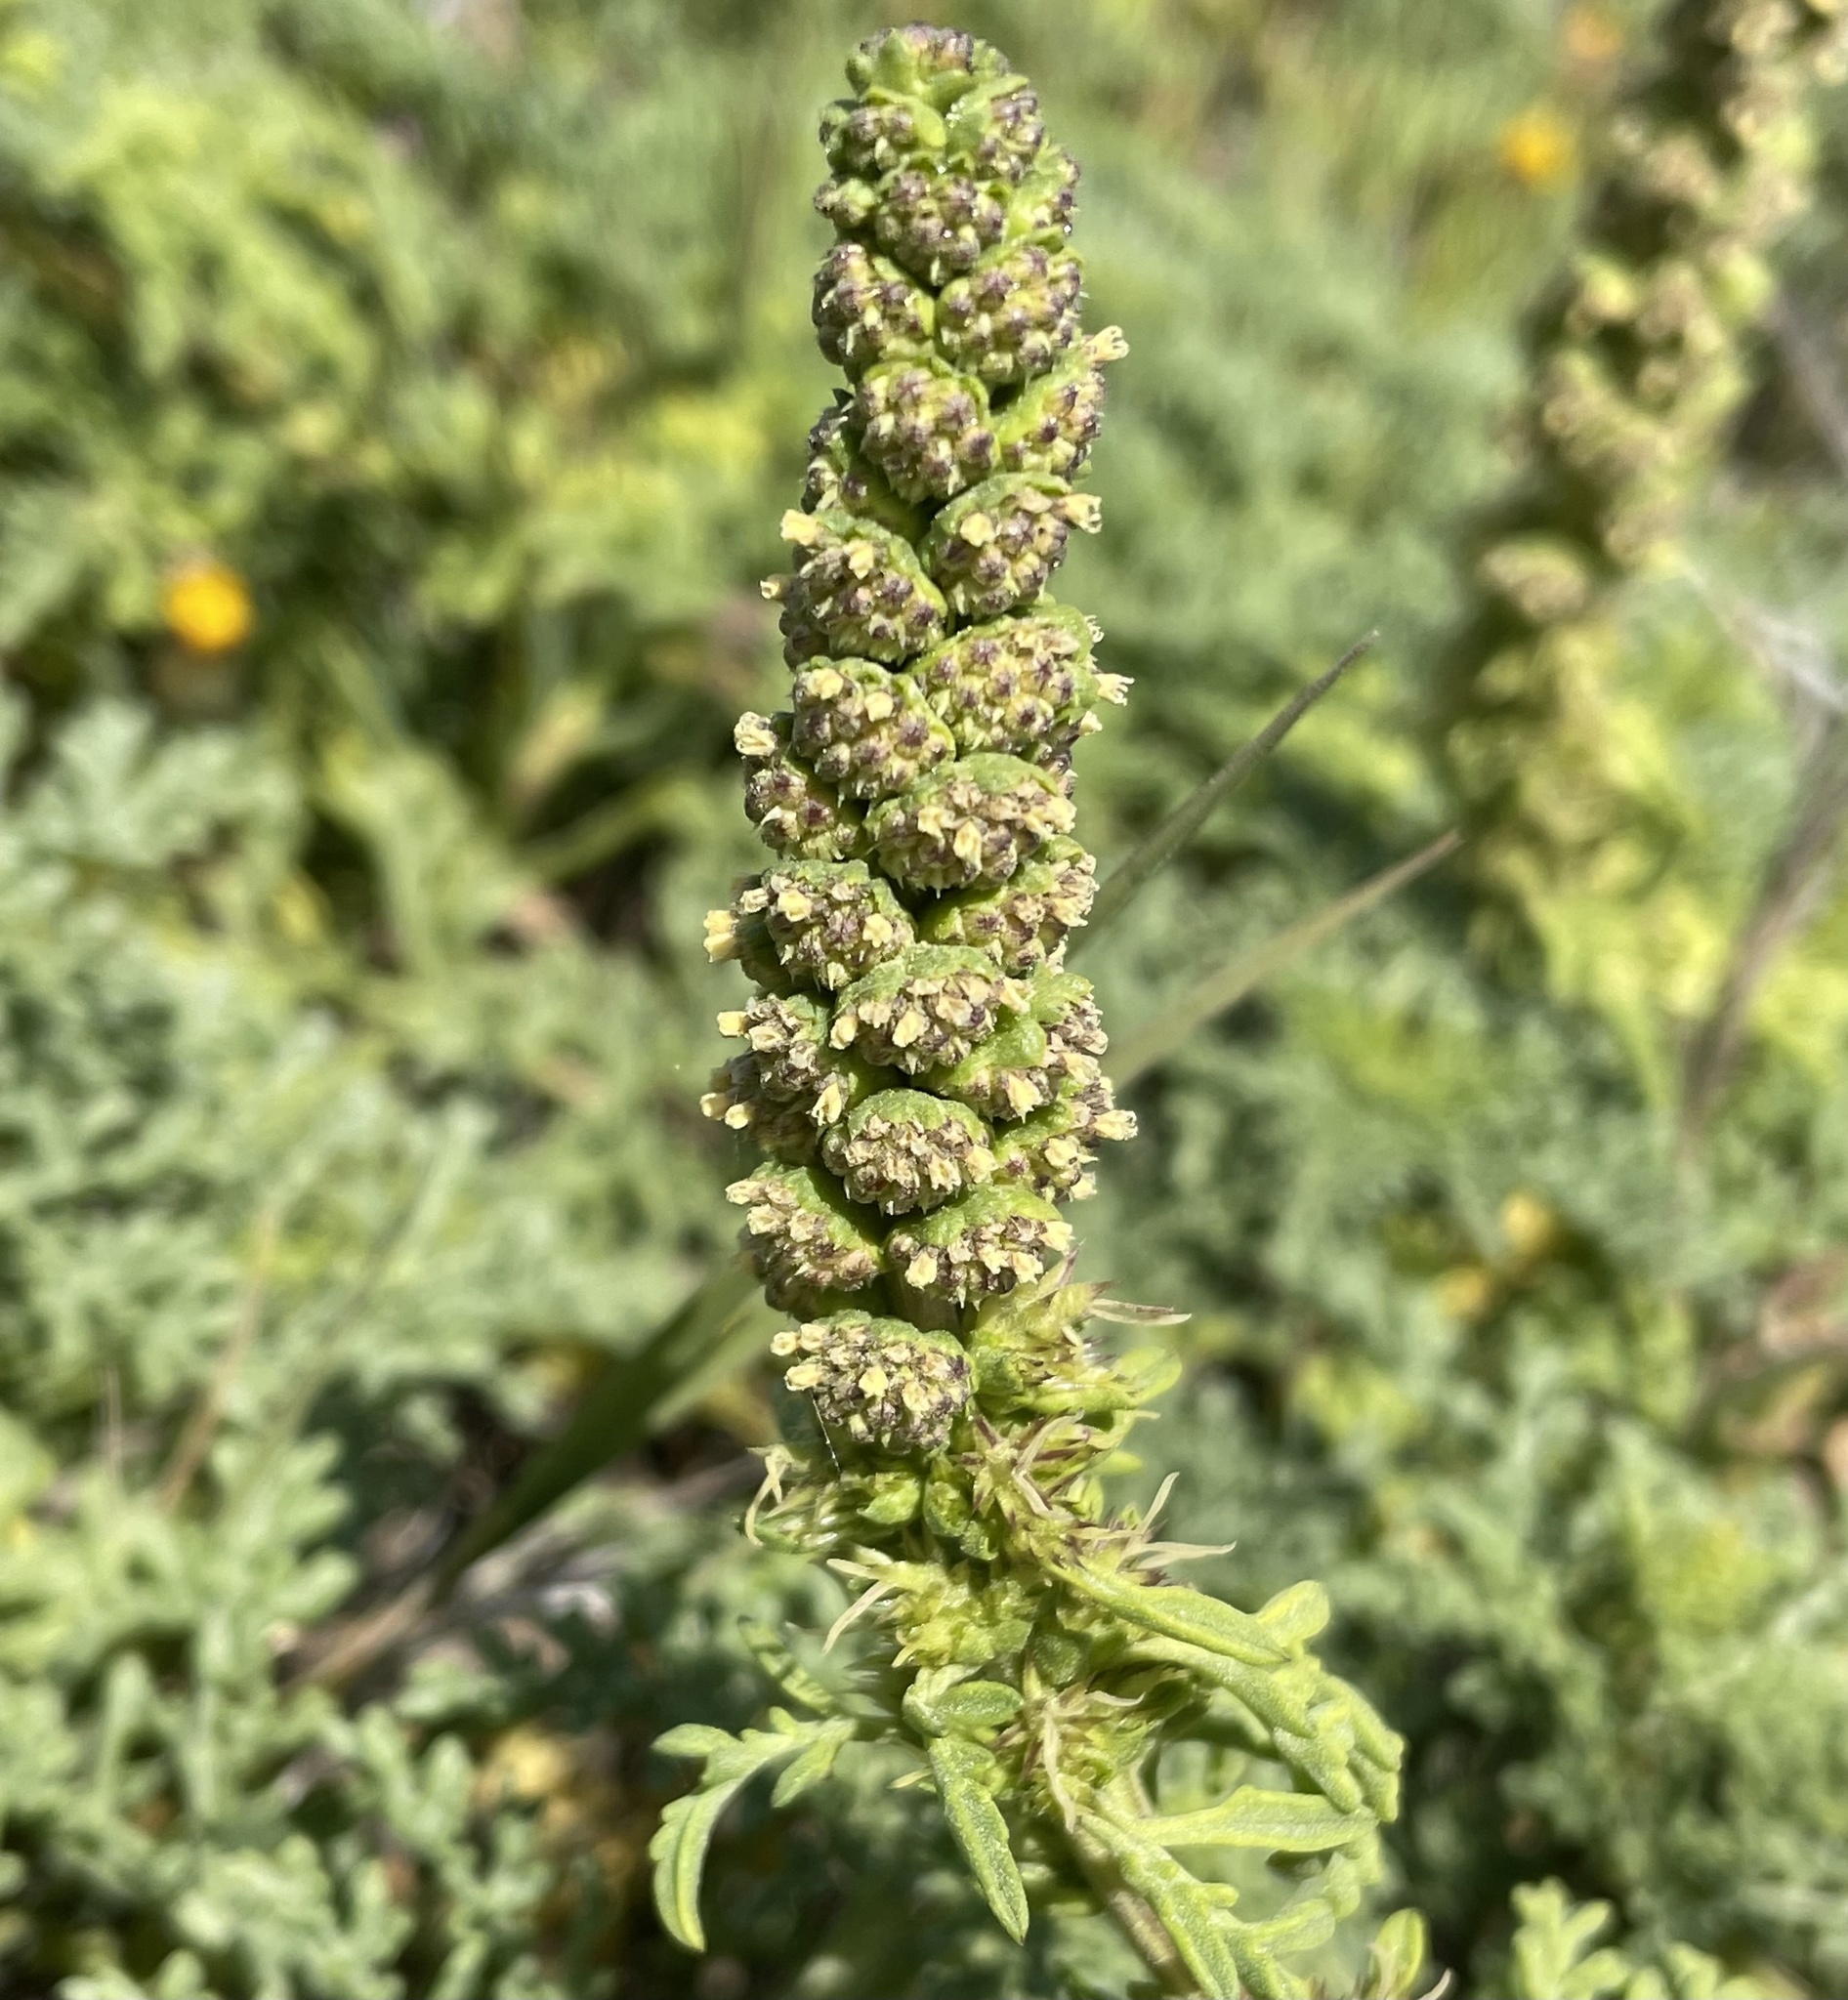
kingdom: Plantae
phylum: Tracheophyta
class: Magnoliopsida
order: Asterales
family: Asteraceae
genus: Ambrosia
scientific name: Ambrosia chamissonis
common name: Beachbur
